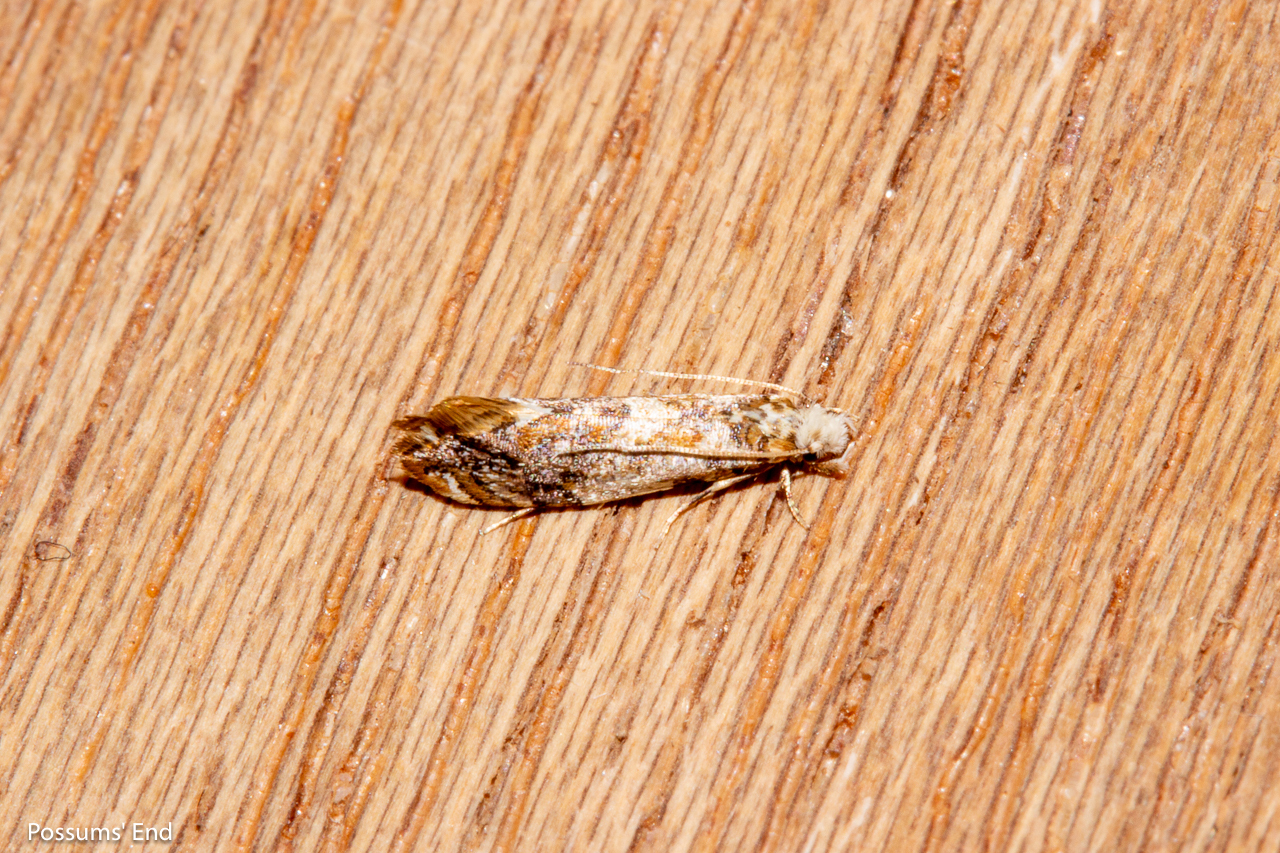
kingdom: Animalia
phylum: Arthropoda
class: Insecta
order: Lepidoptera
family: Tineidae
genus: Eschatotypa
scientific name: Eschatotypa derogatella
